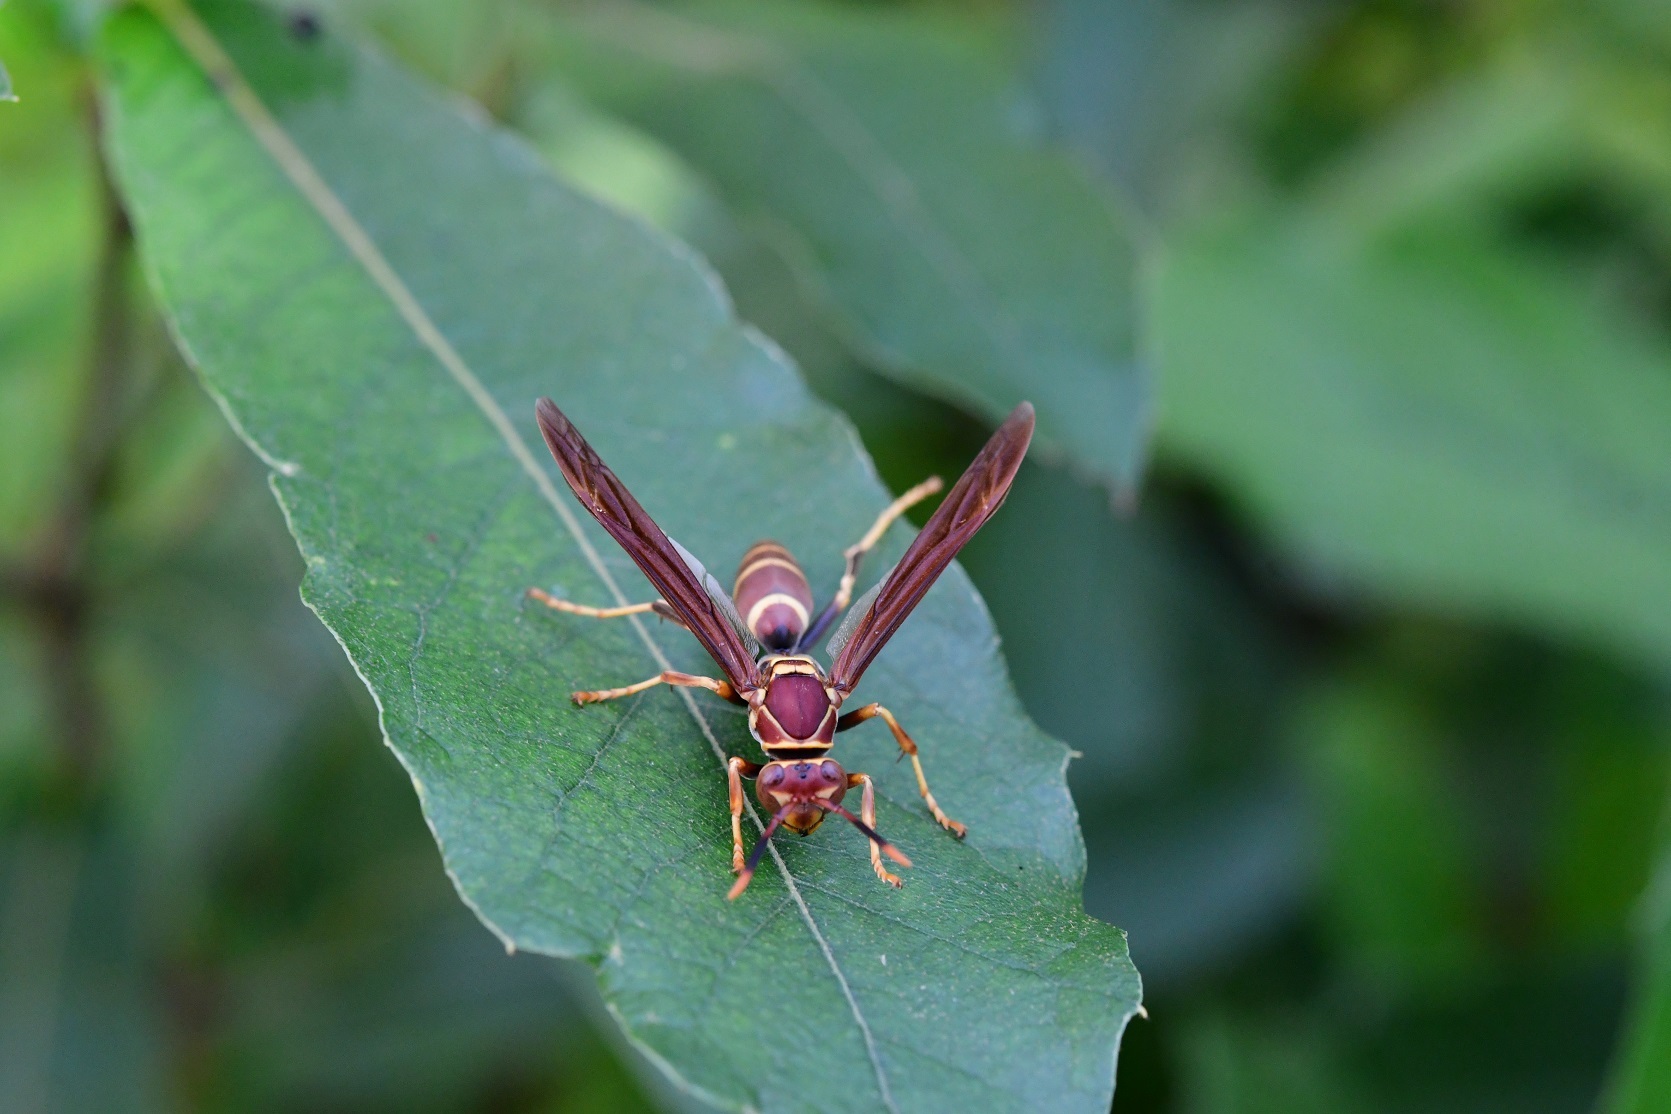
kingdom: Animalia
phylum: Arthropoda
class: Insecta
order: Hymenoptera
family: Eumenidae
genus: Polistes
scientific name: Polistes instabilis
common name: Unstable paper wasp
